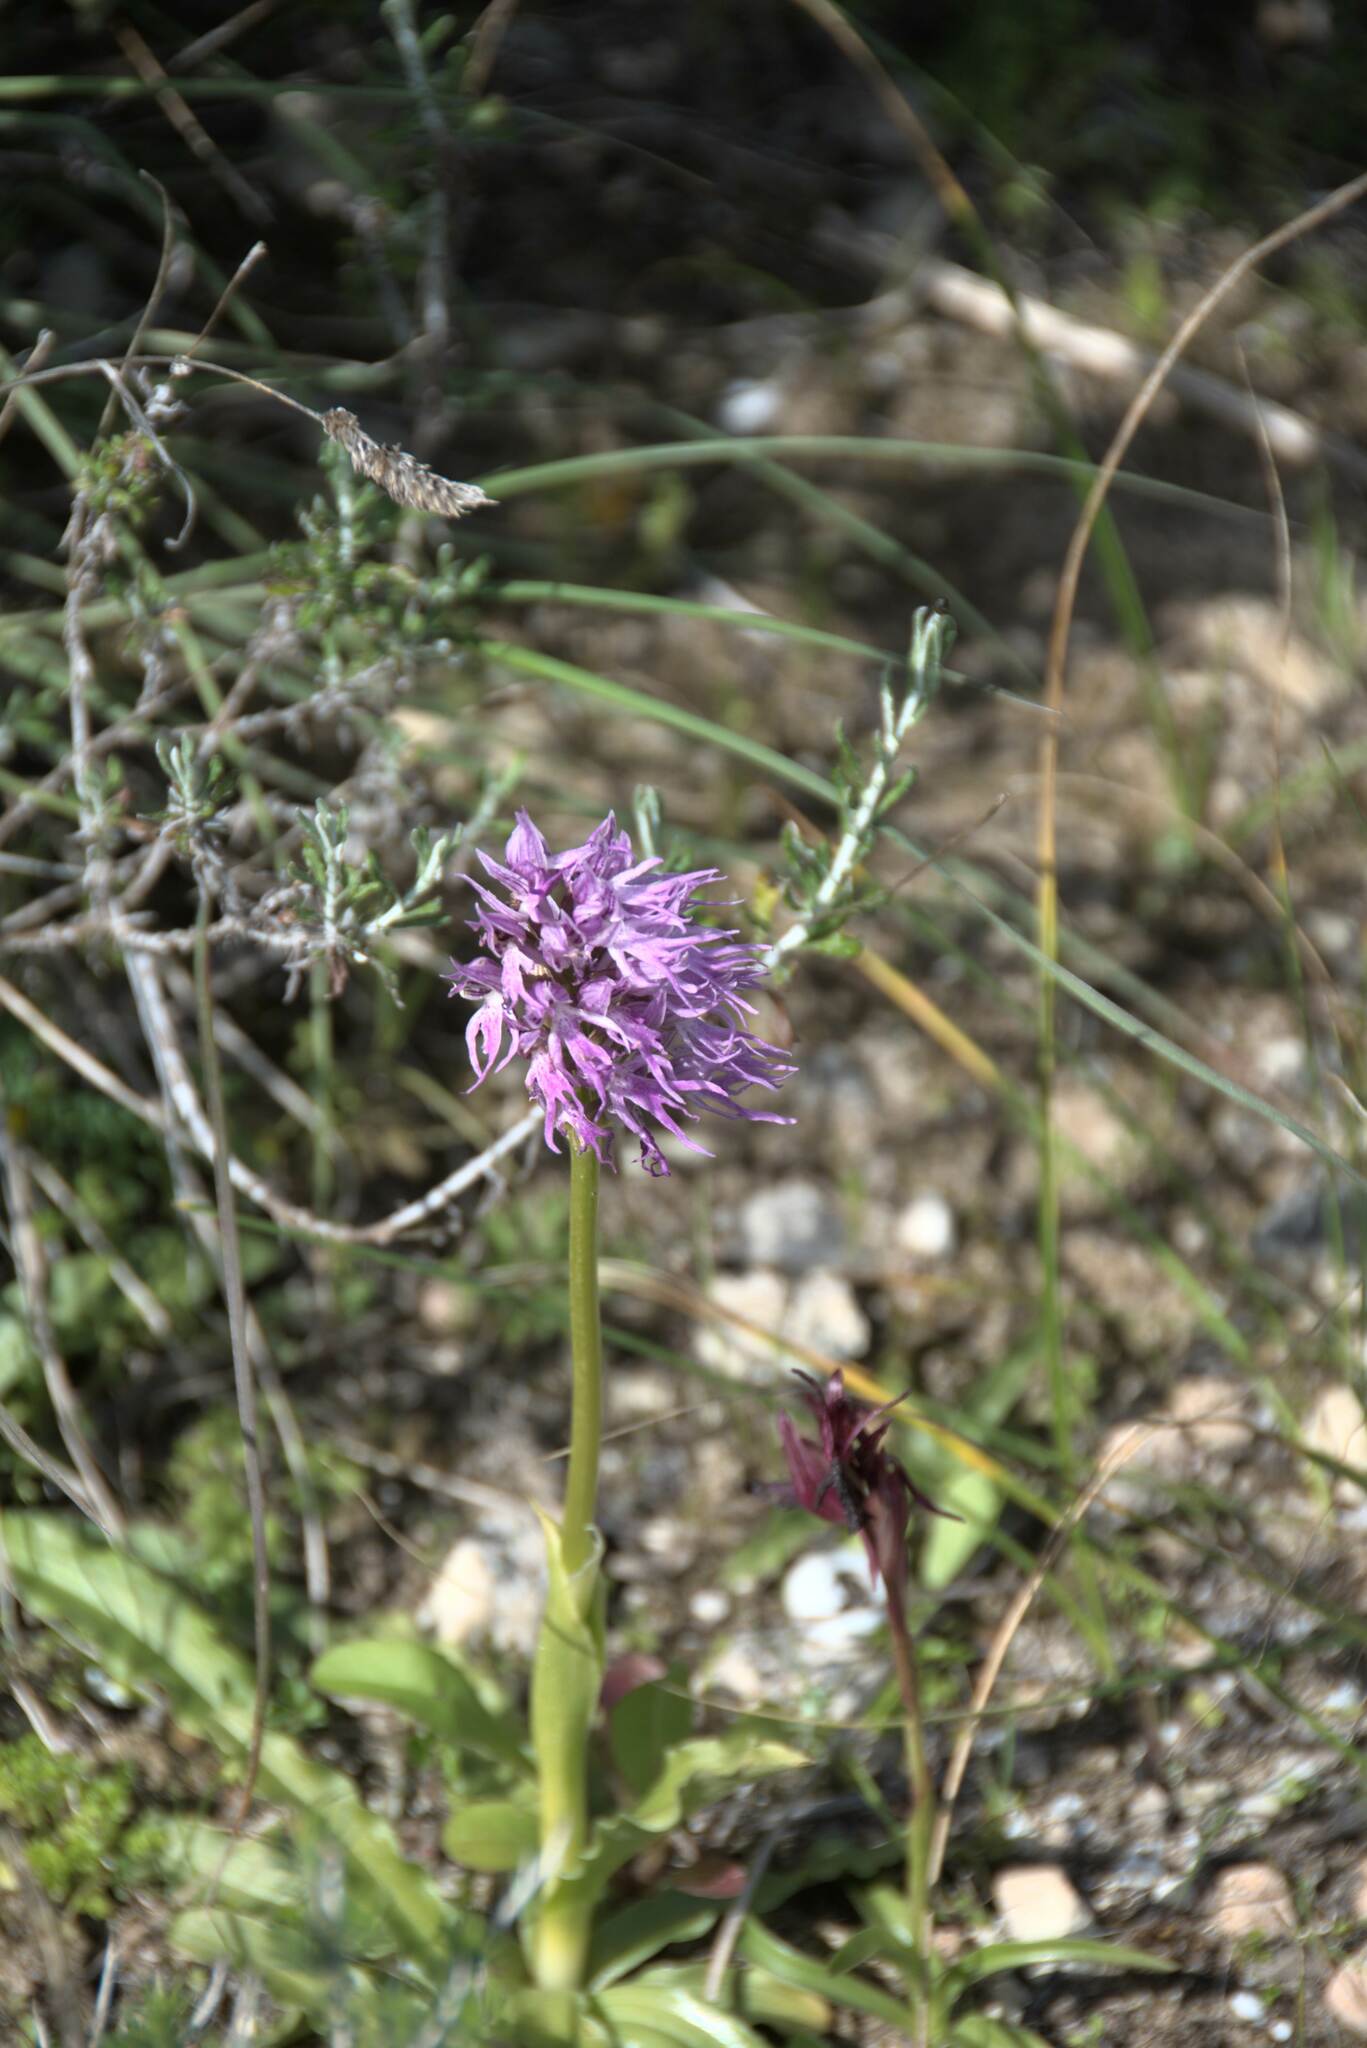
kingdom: Plantae
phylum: Tracheophyta
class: Liliopsida
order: Asparagales
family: Orchidaceae
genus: Orchis
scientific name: Orchis italica
